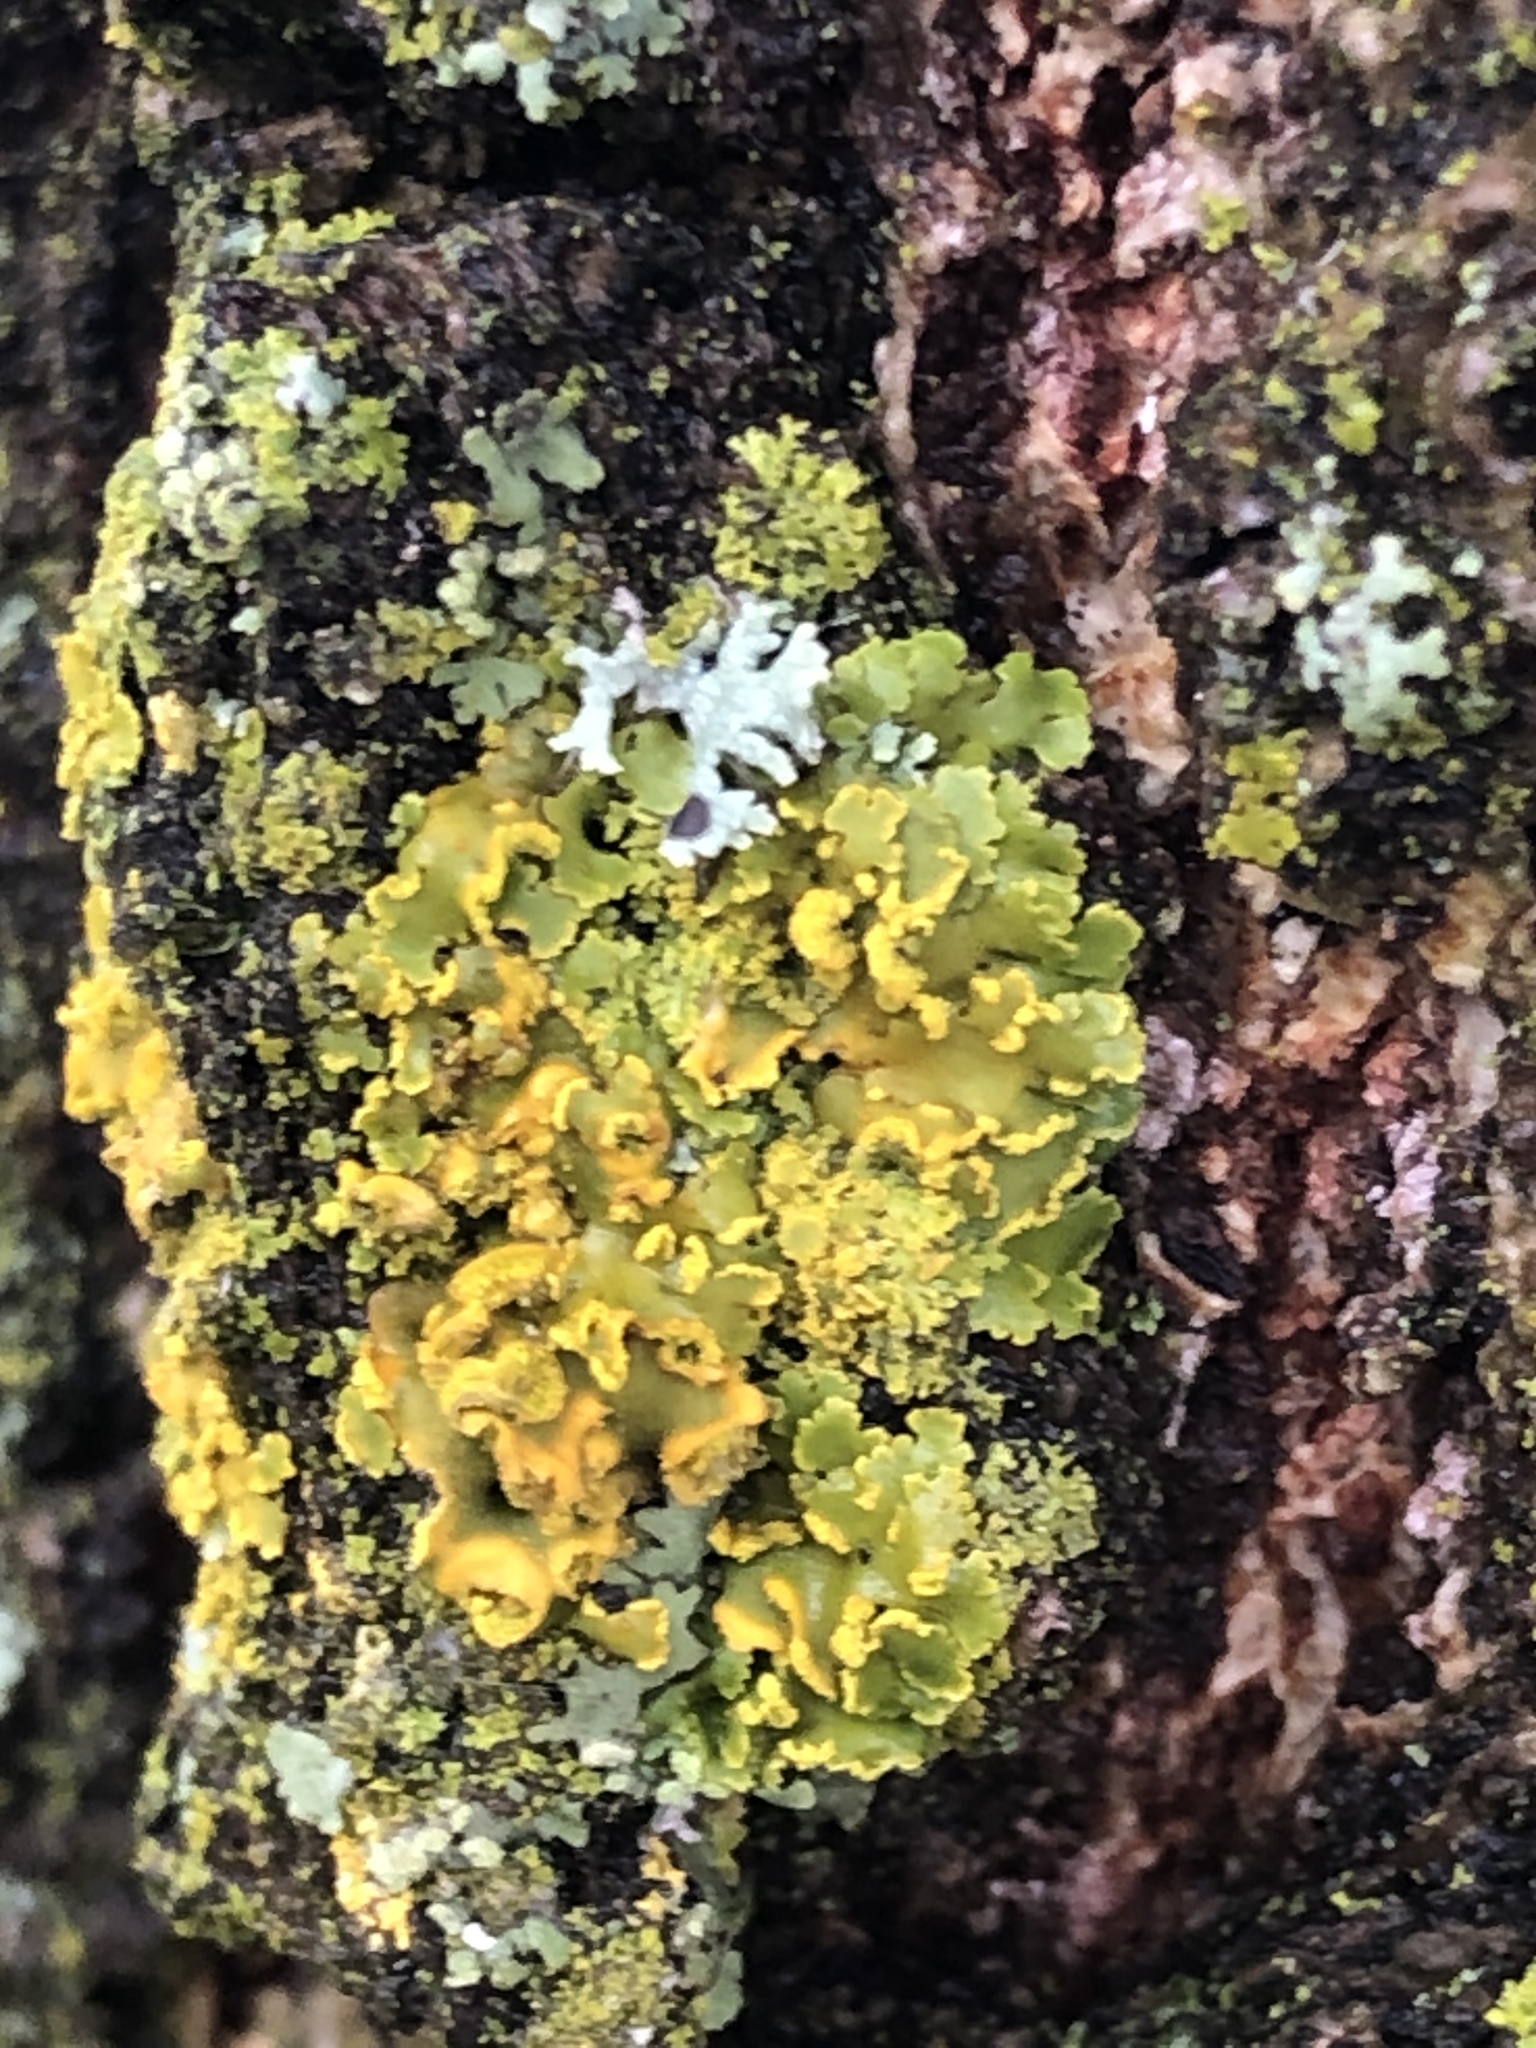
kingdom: Fungi
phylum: Ascomycota
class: Lecanoromycetes
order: Teloschistales
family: Teloschistaceae
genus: Xanthoria
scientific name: Xanthoria ulophyllodes
